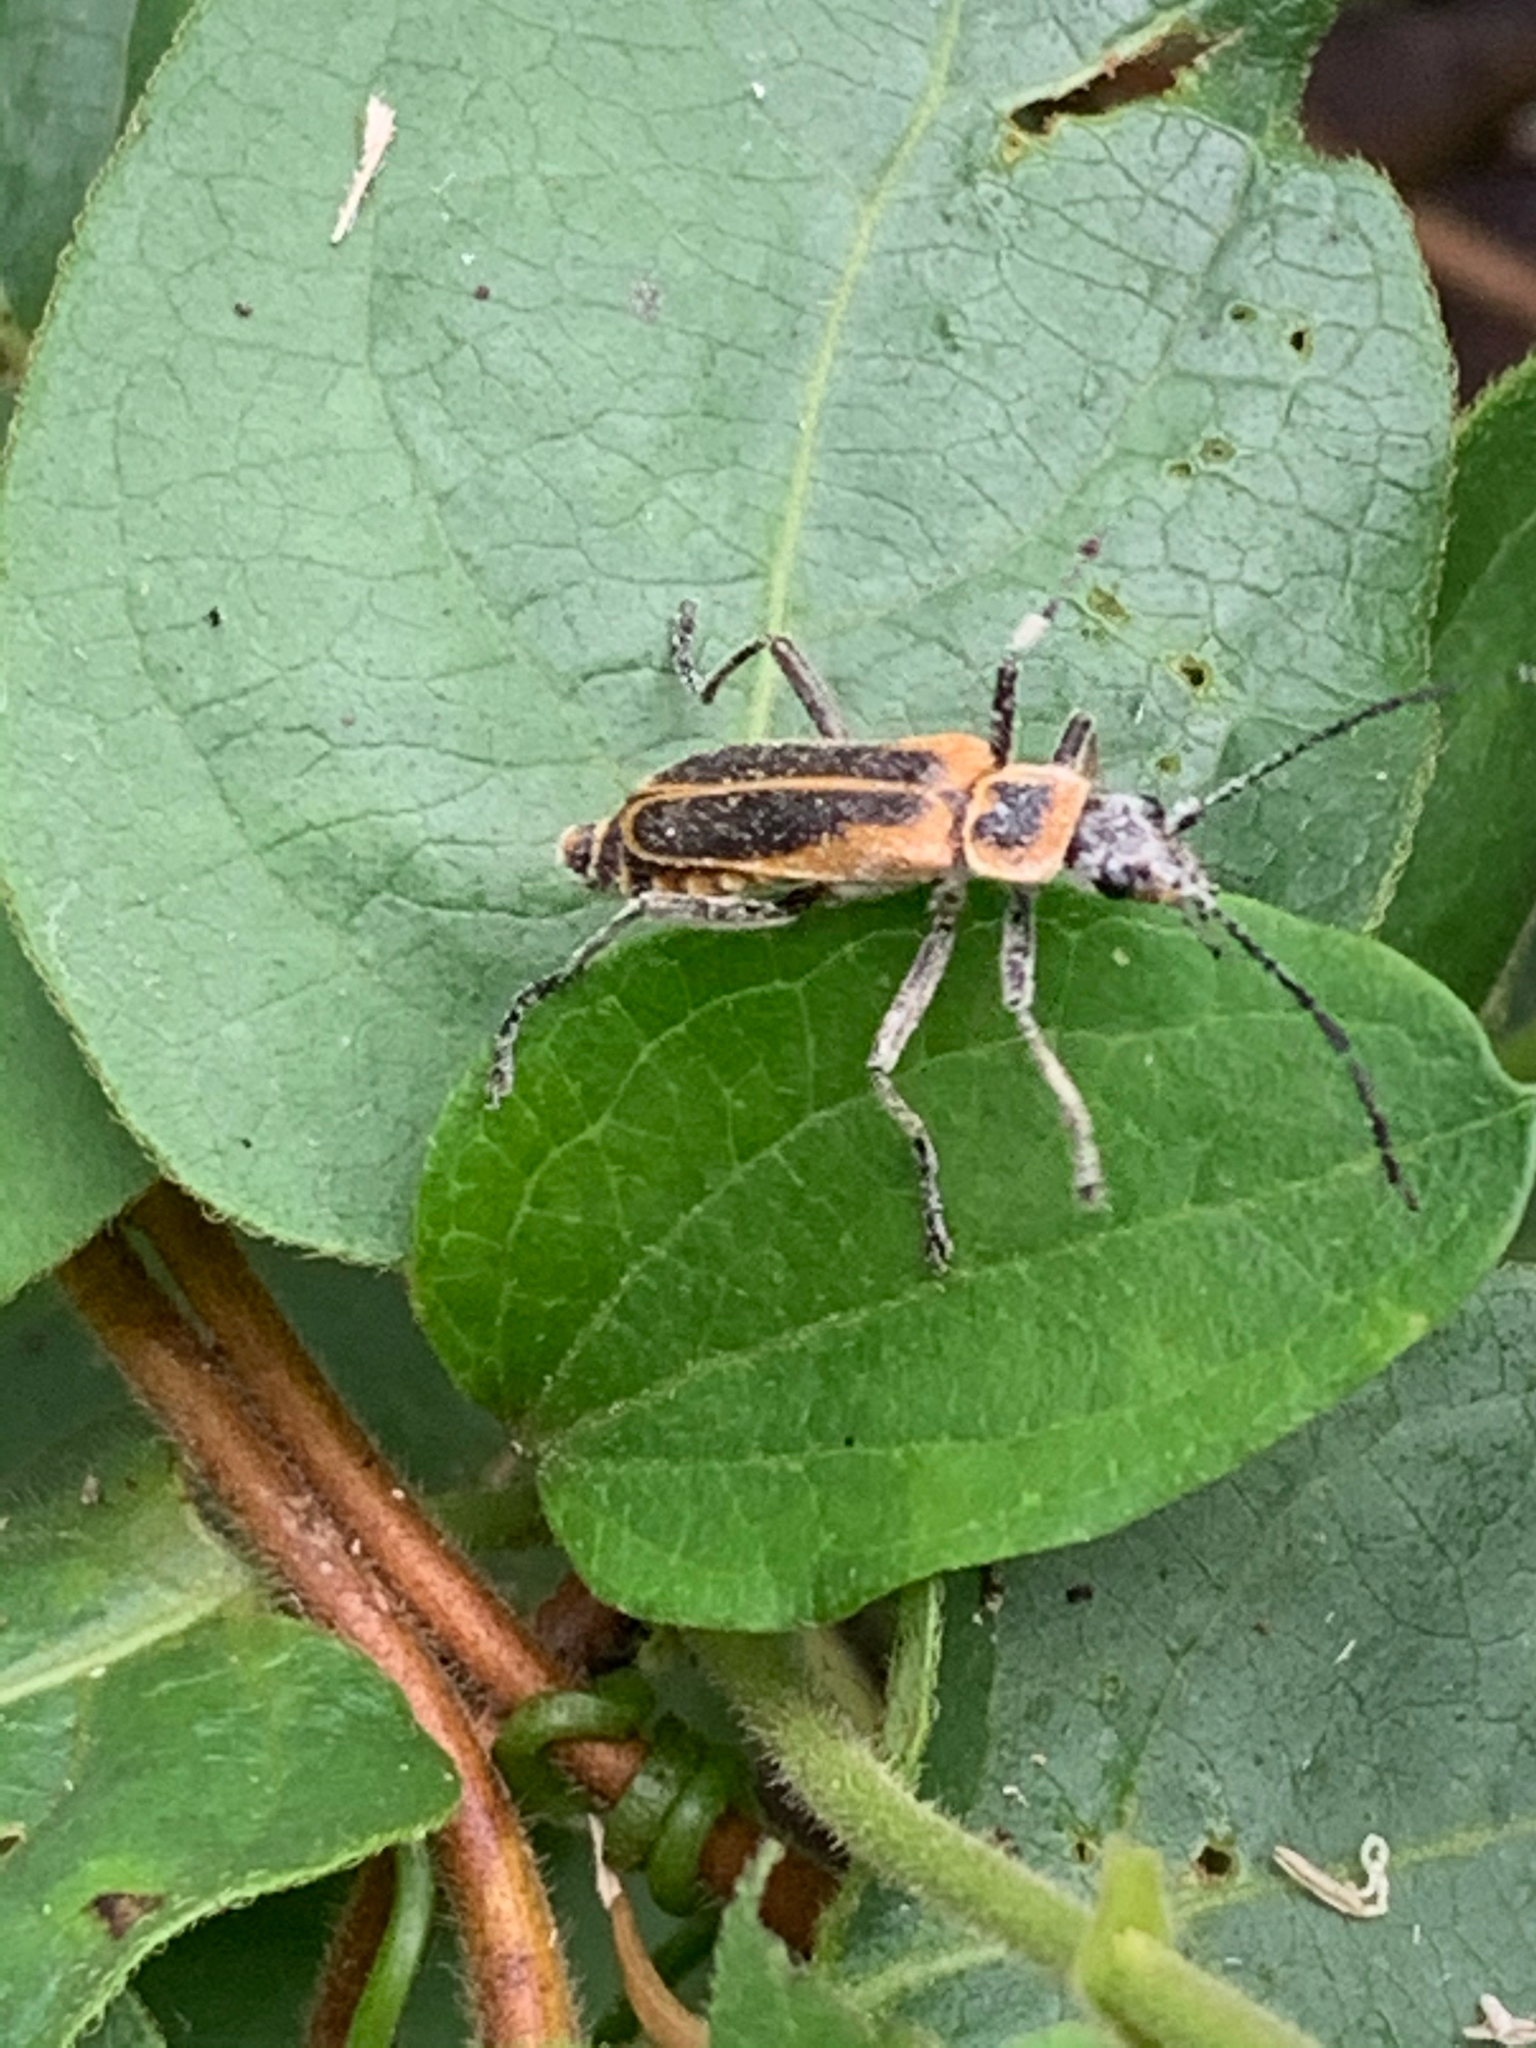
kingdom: Animalia
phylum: Arthropoda
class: Insecta
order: Coleoptera
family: Cantharidae
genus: Chauliognathus
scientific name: Chauliognathus pensylvanicus
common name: Goldenrod soldier beetle
